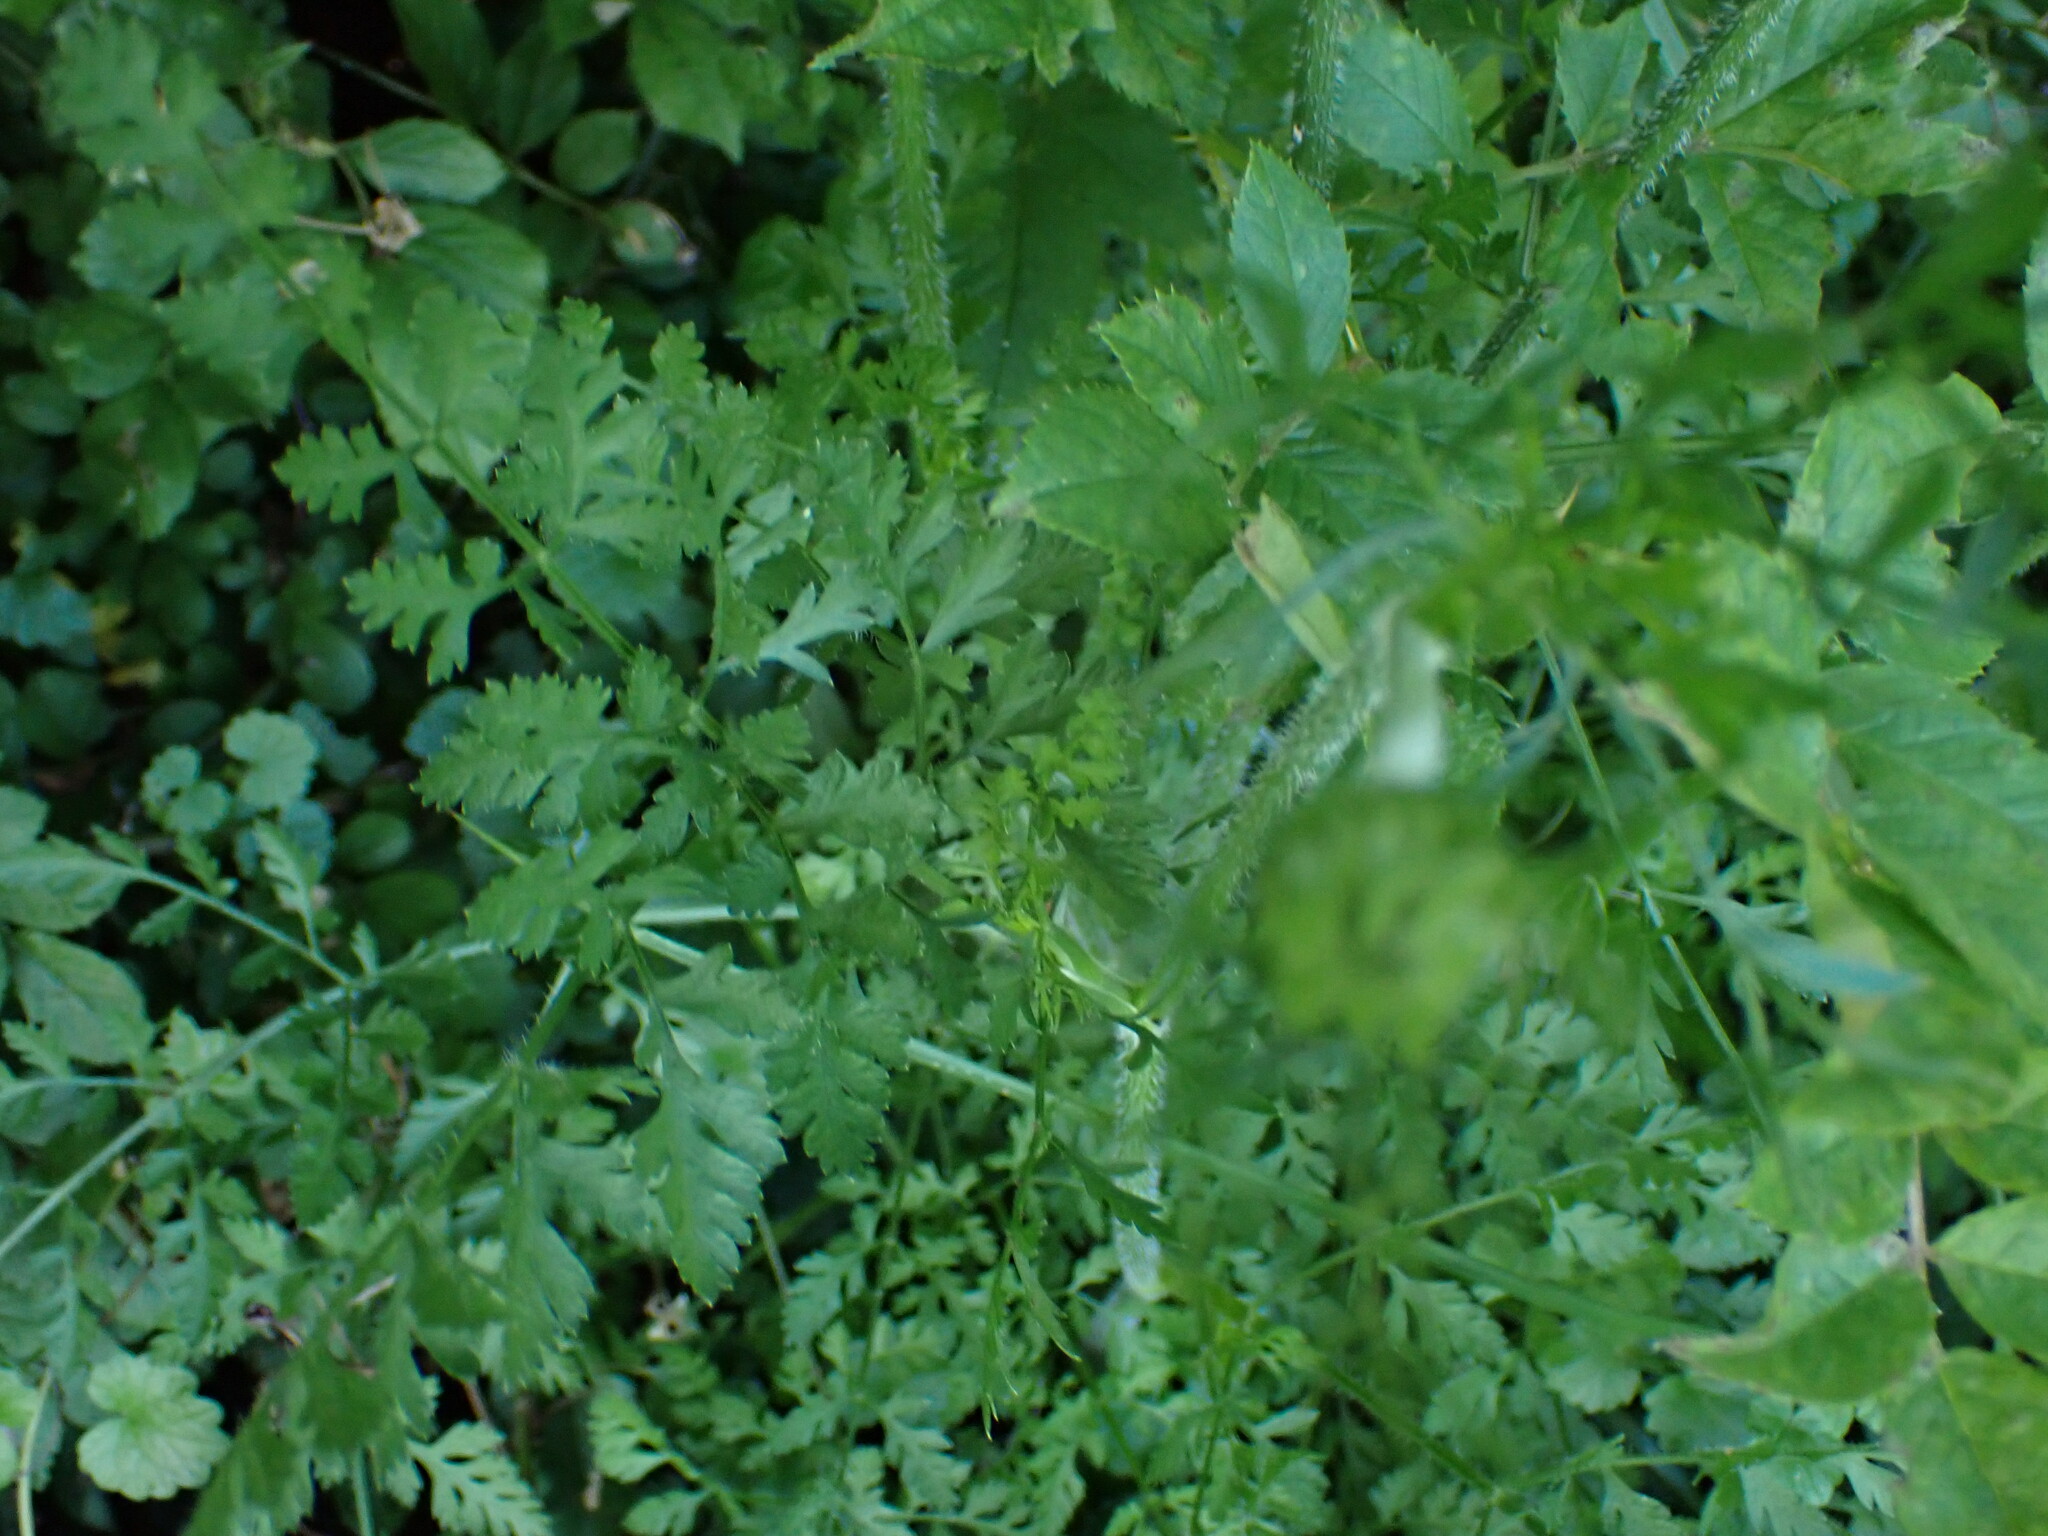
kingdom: Plantae
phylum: Tracheophyta
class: Magnoliopsida
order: Apiales
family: Apiaceae
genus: Daucus
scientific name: Daucus carota
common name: Wild carrot
